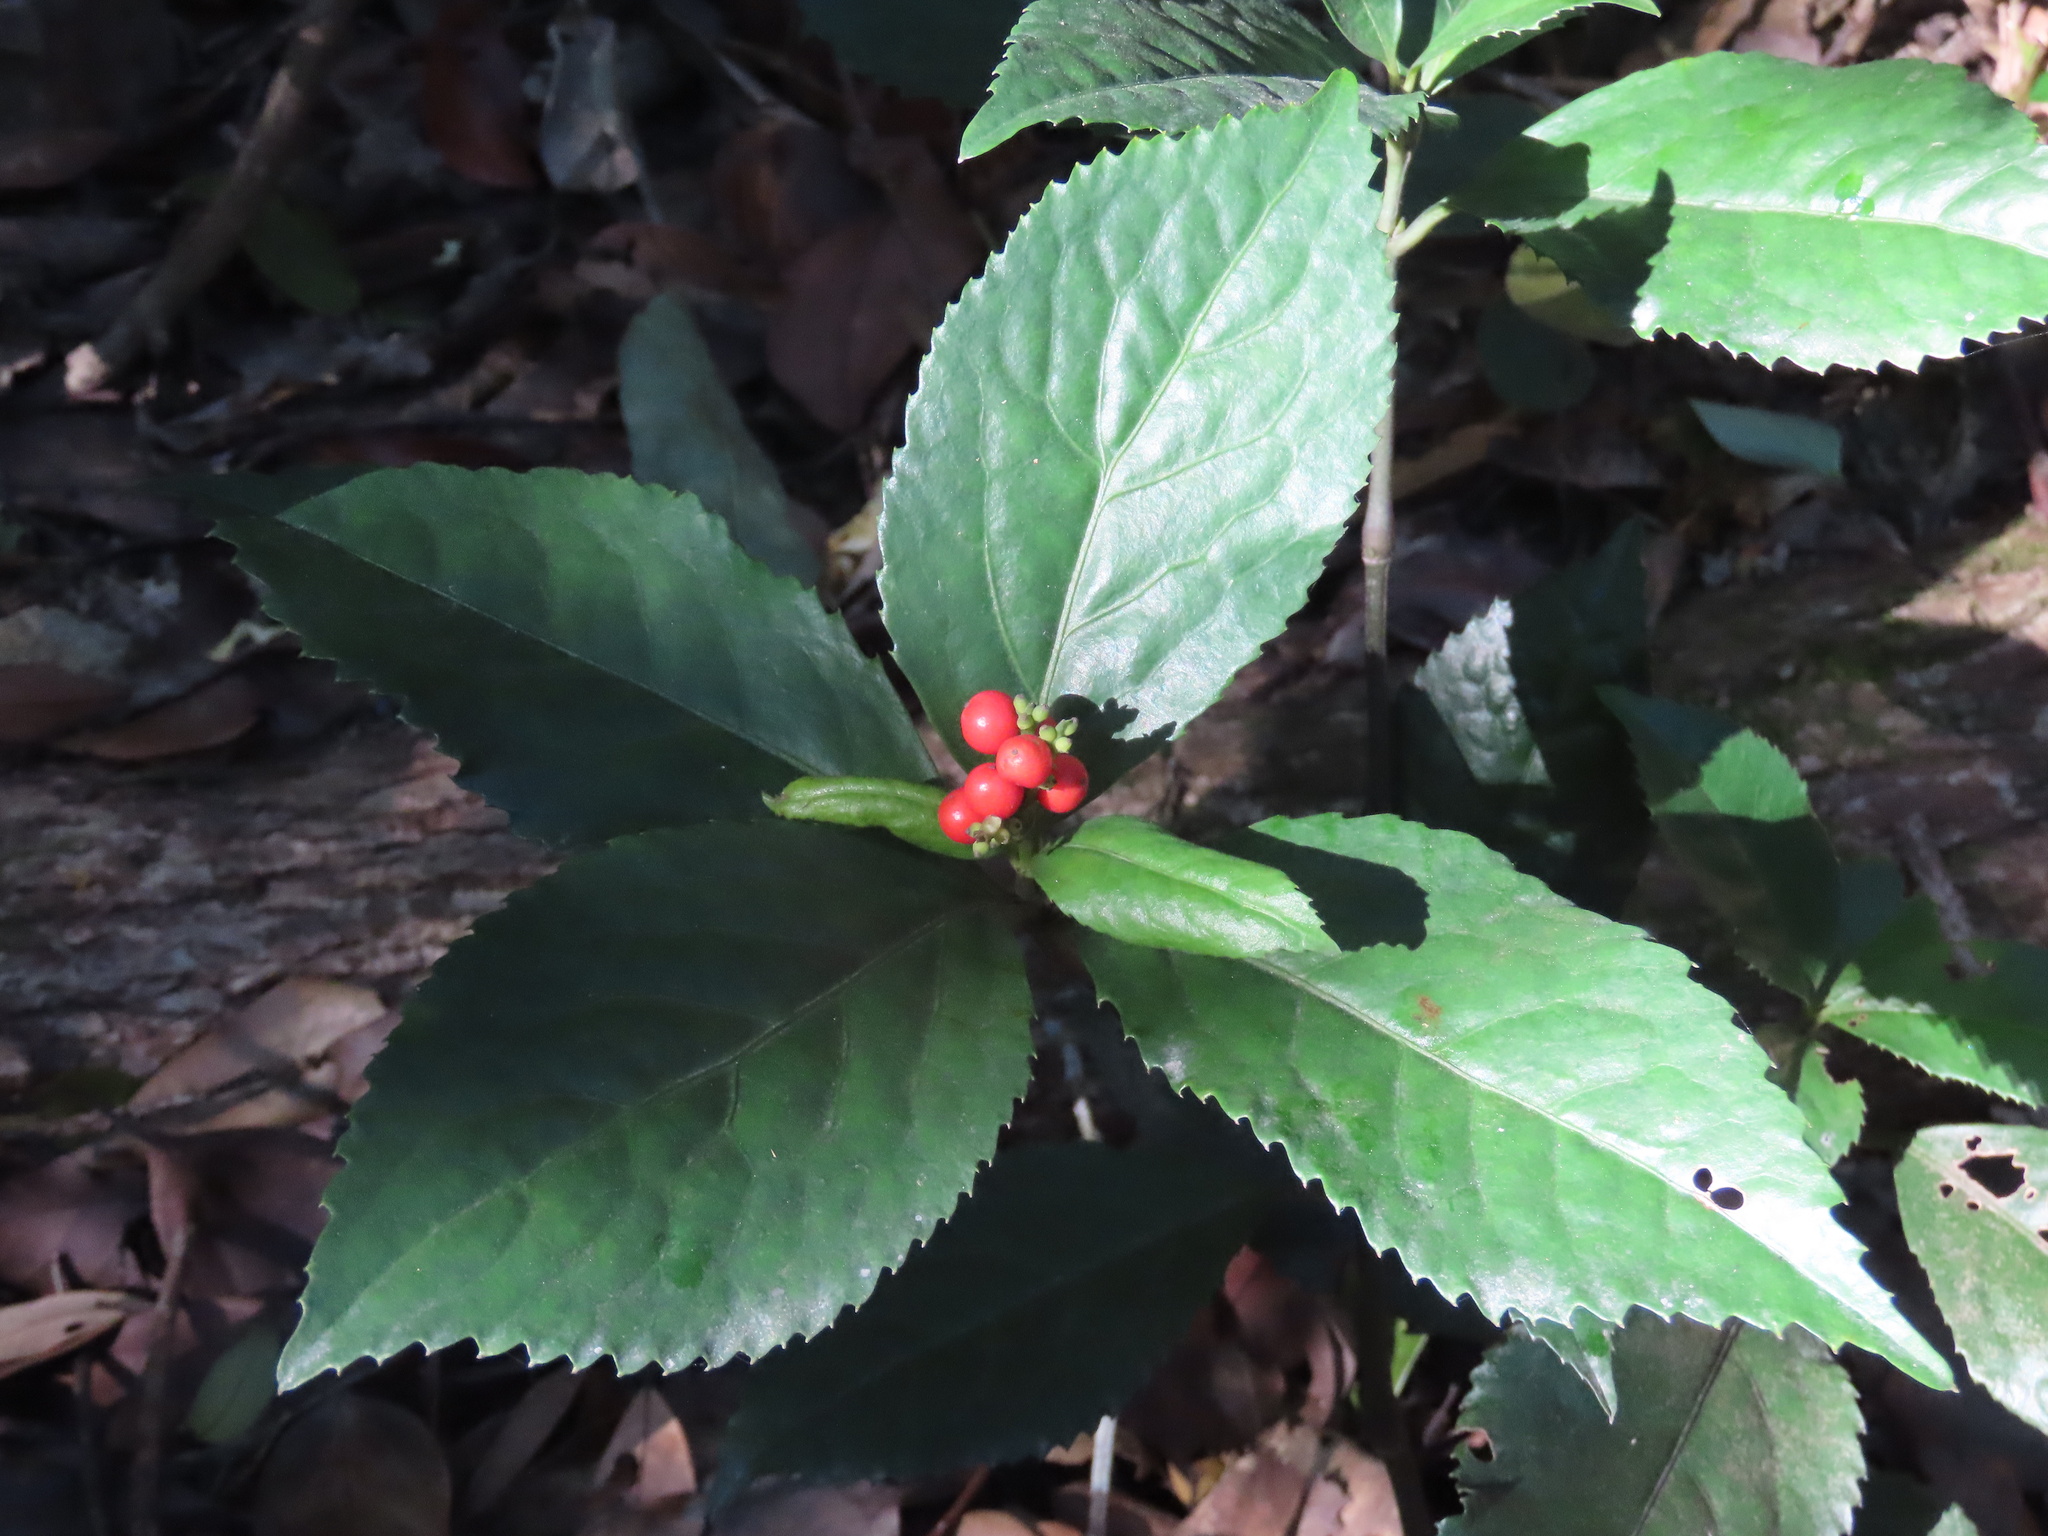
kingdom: Plantae
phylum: Tracheophyta
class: Magnoliopsida
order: Chloranthales
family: Chloranthaceae
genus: Sarcandra
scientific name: Sarcandra glabra
